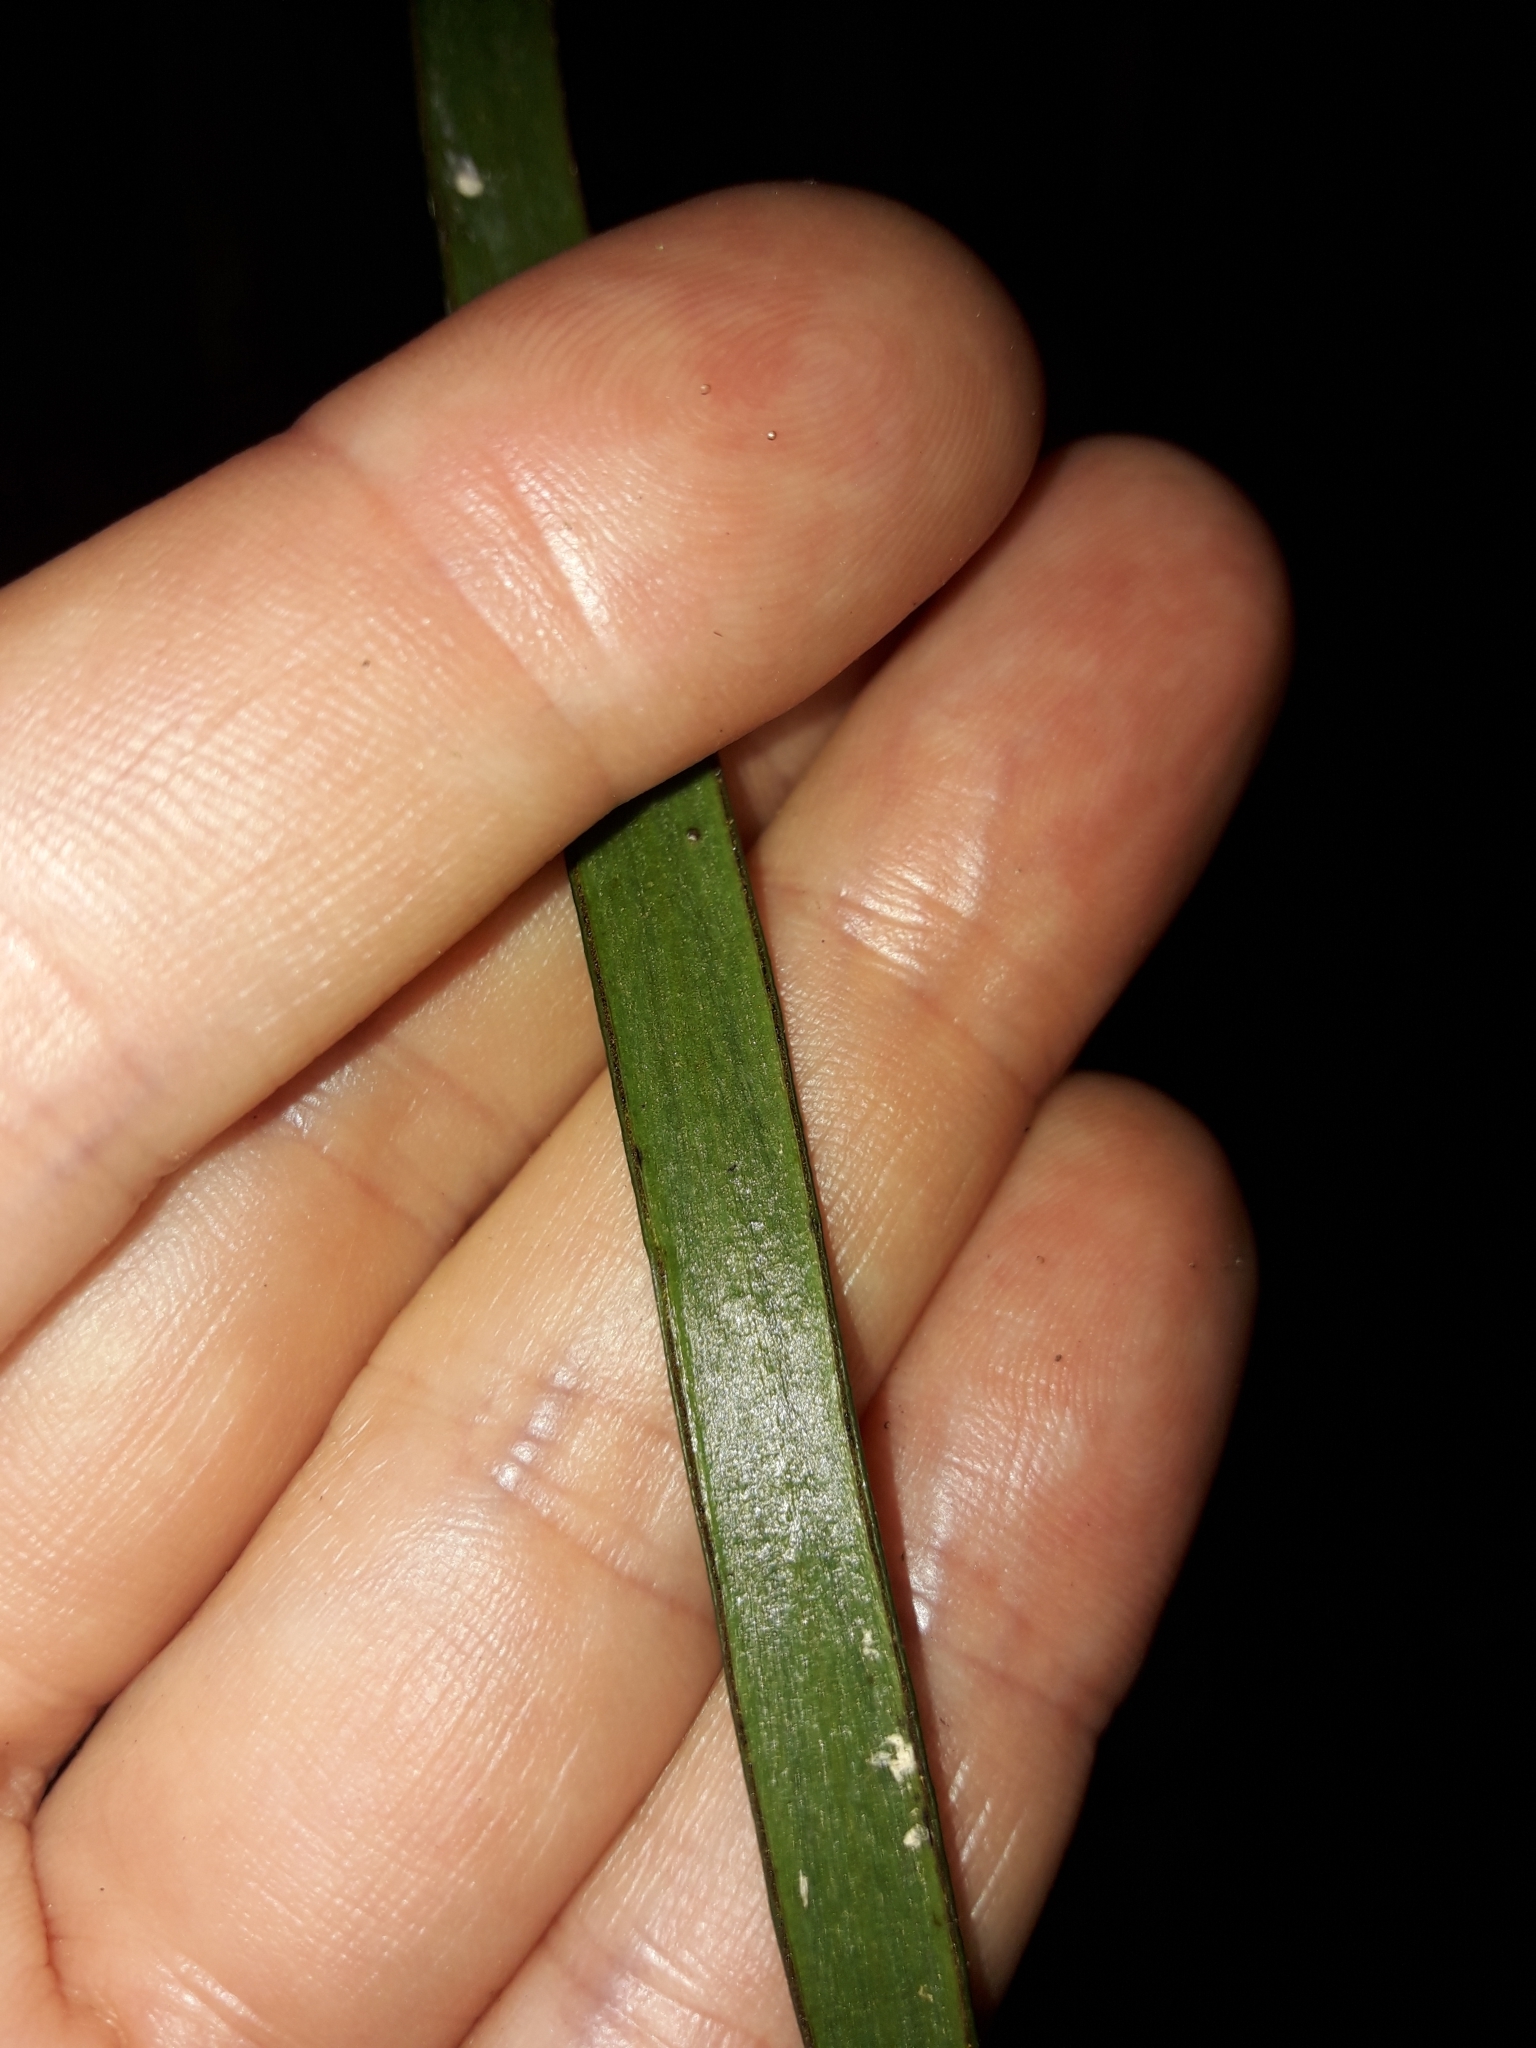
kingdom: Plantae
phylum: Tracheophyta
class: Polypodiopsida
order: Polypodiales
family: Pteridaceae
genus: Haplopteris
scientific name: Haplopteris elongata
